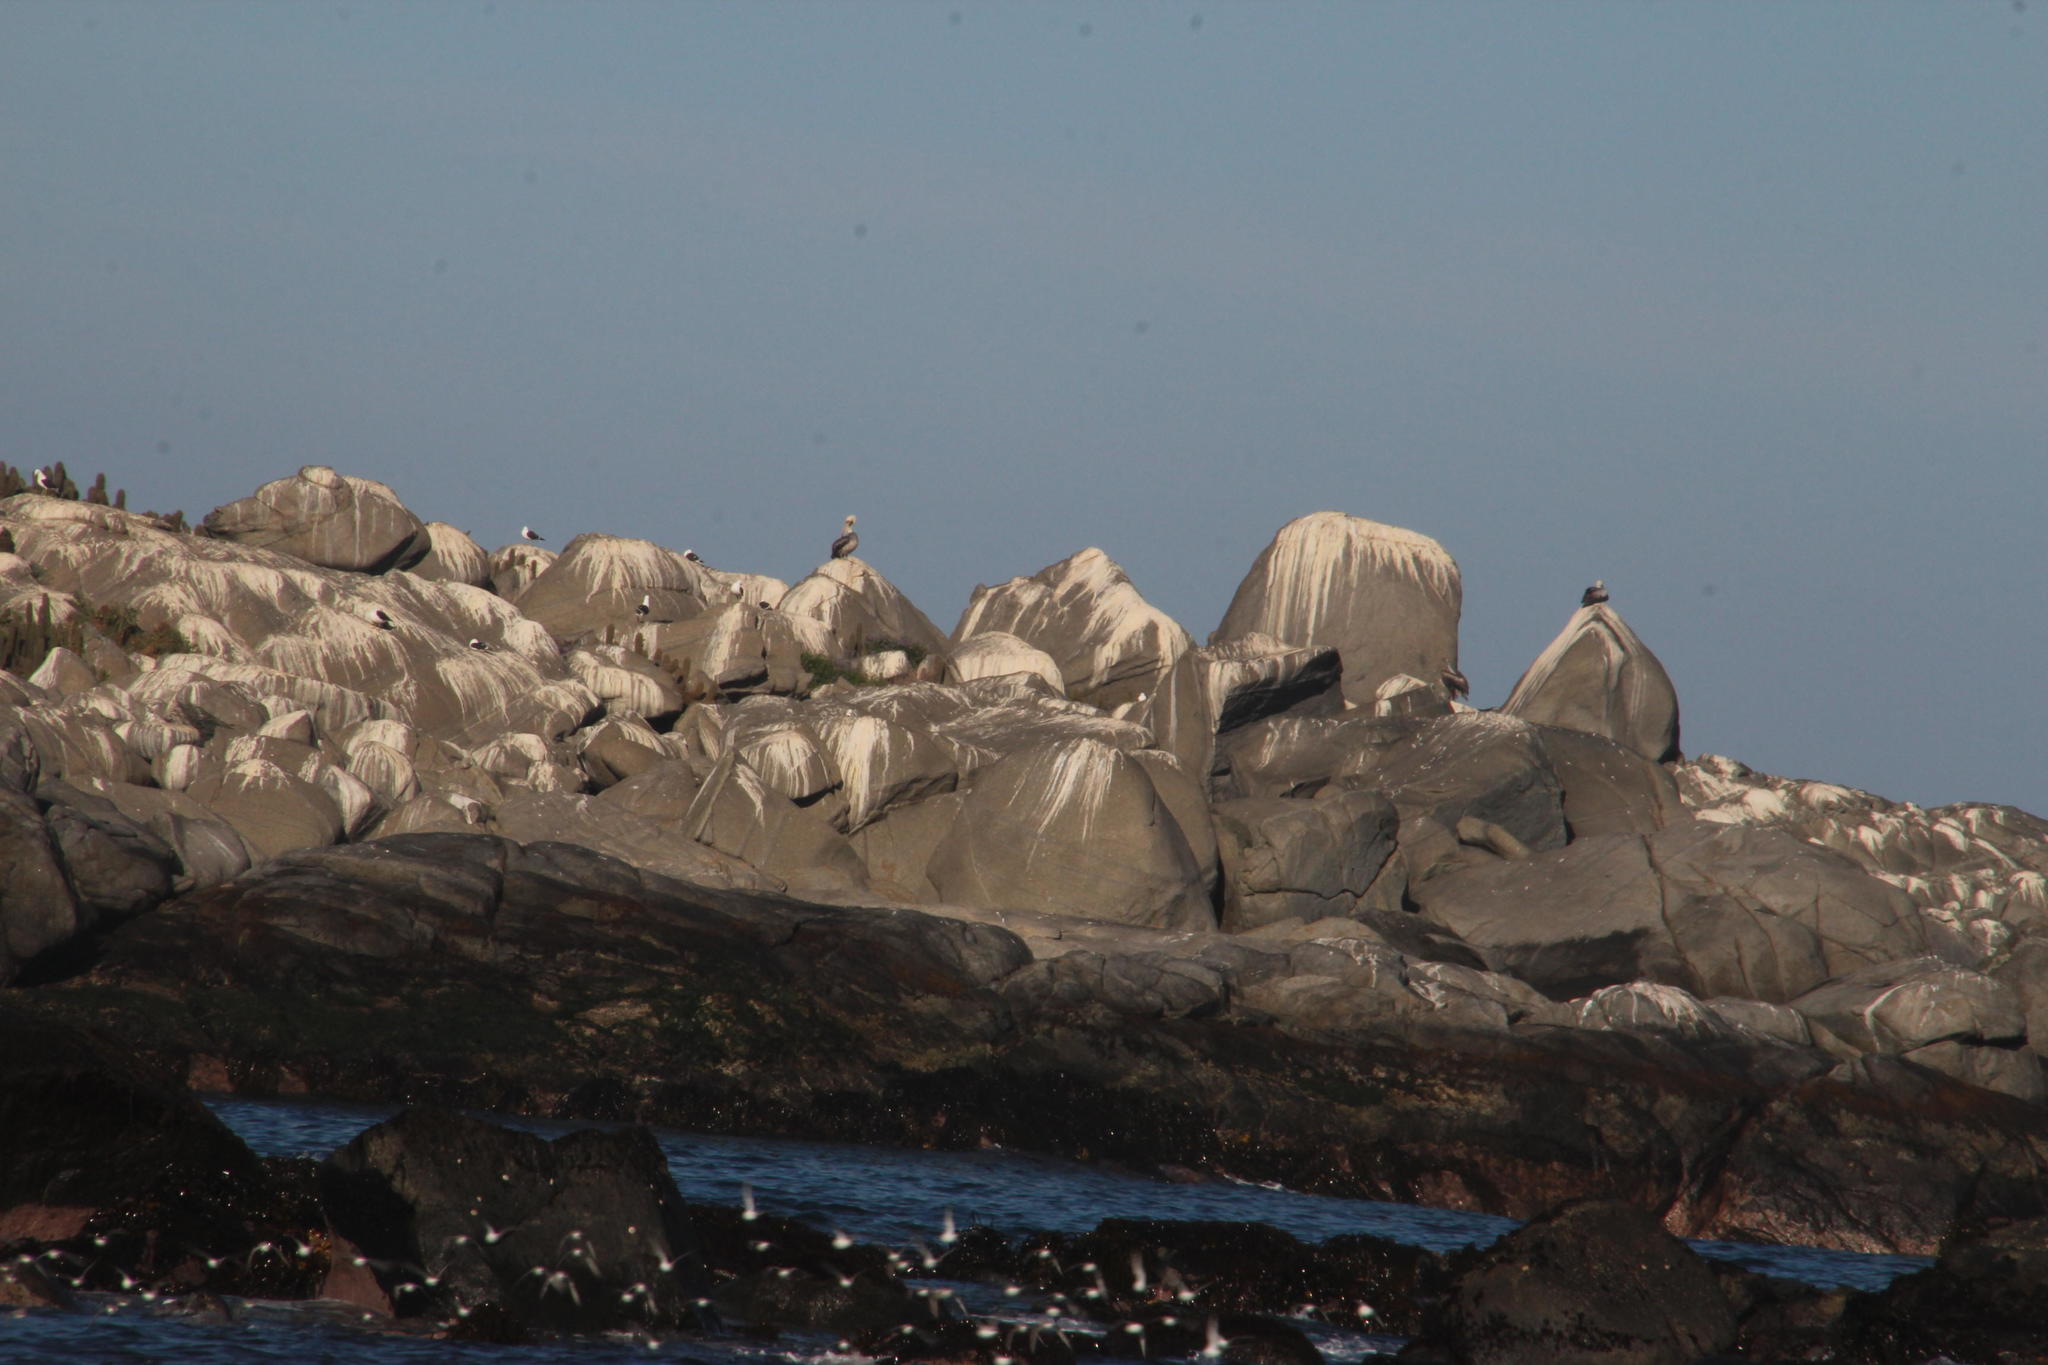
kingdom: Animalia
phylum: Chordata
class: Aves
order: Charadriiformes
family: Laridae
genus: Larus
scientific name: Larus dominicanus
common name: Kelp gull
